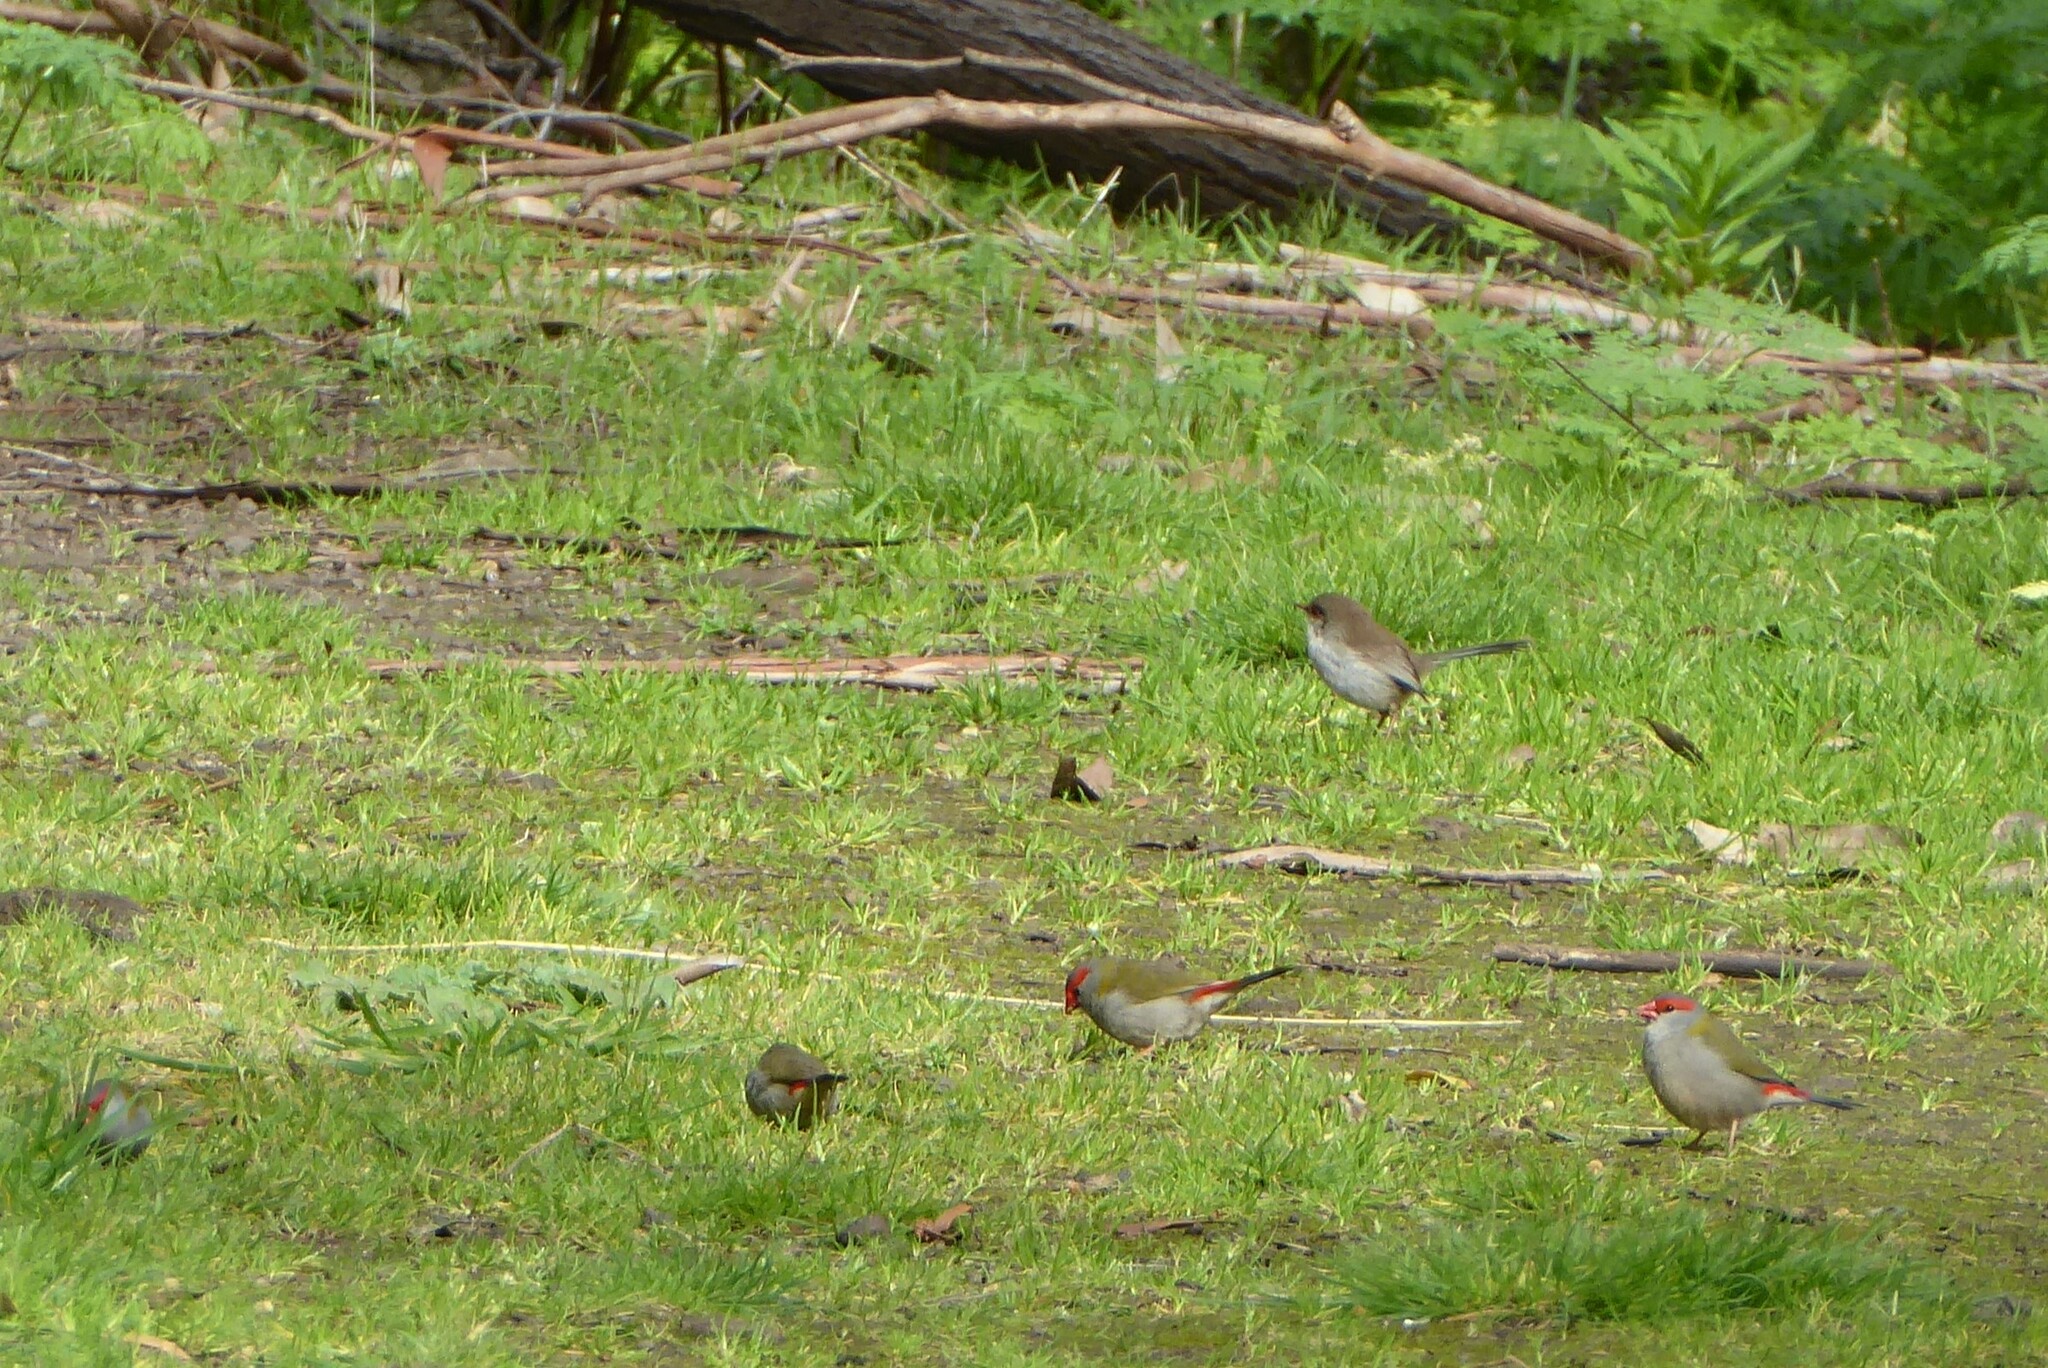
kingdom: Animalia
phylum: Chordata
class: Aves
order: Passeriformes
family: Estrildidae
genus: Neochmia
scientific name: Neochmia temporalis
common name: Red-browed finch
